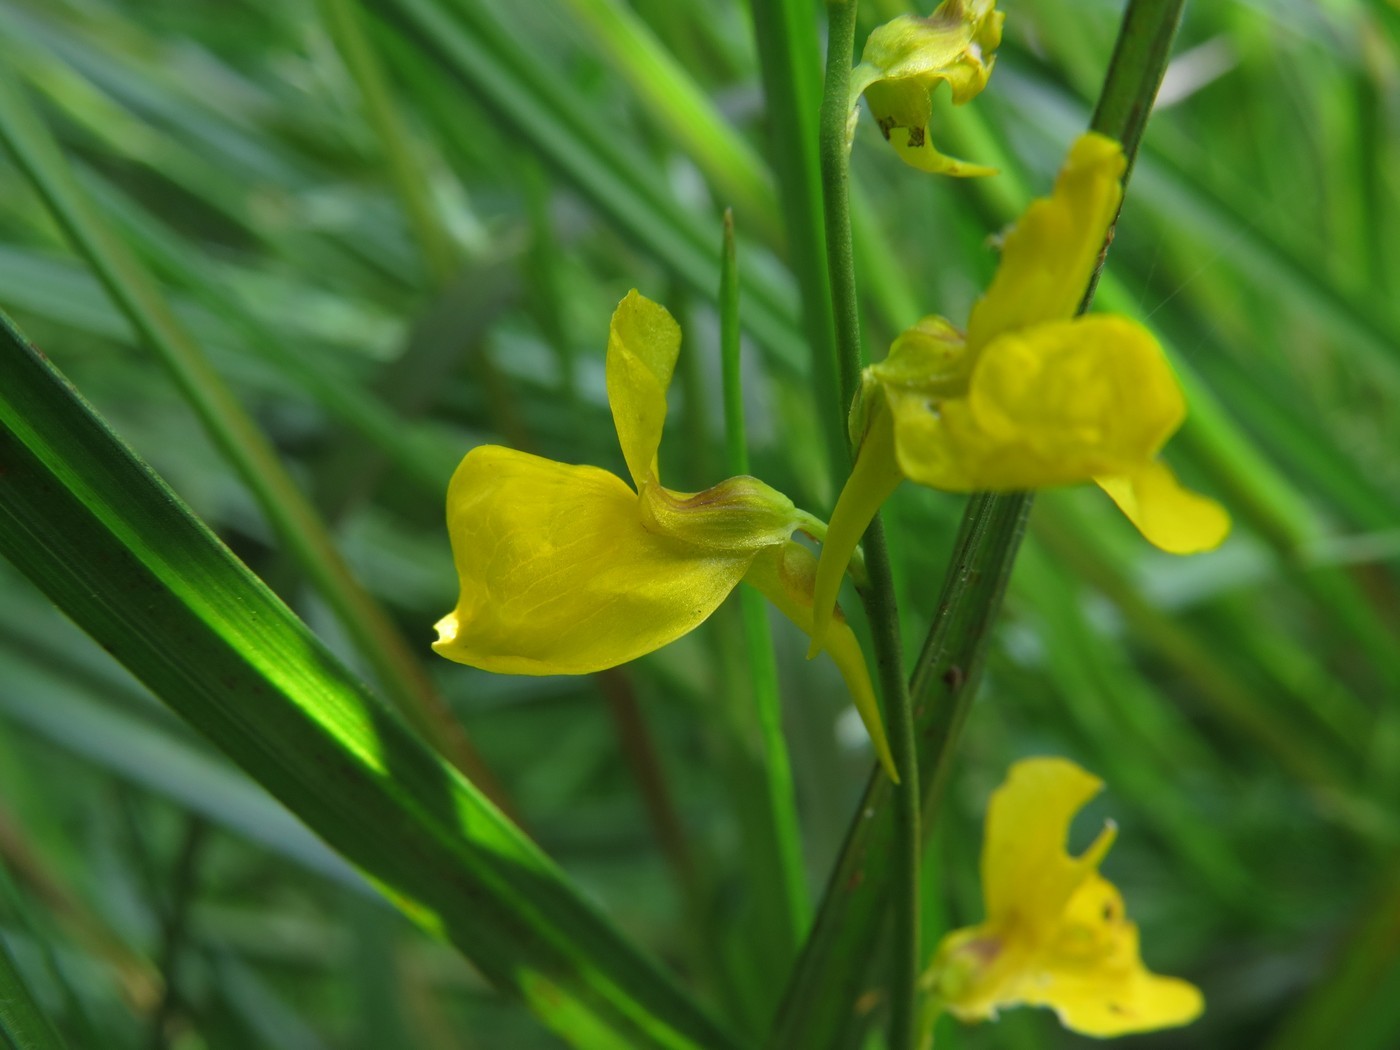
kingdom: Plantae
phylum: Tracheophyta
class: Magnoliopsida
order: Lamiales
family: Lentibulariaceae
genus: Utricularia
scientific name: Utricularia cornuta
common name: Horned bladderwort
